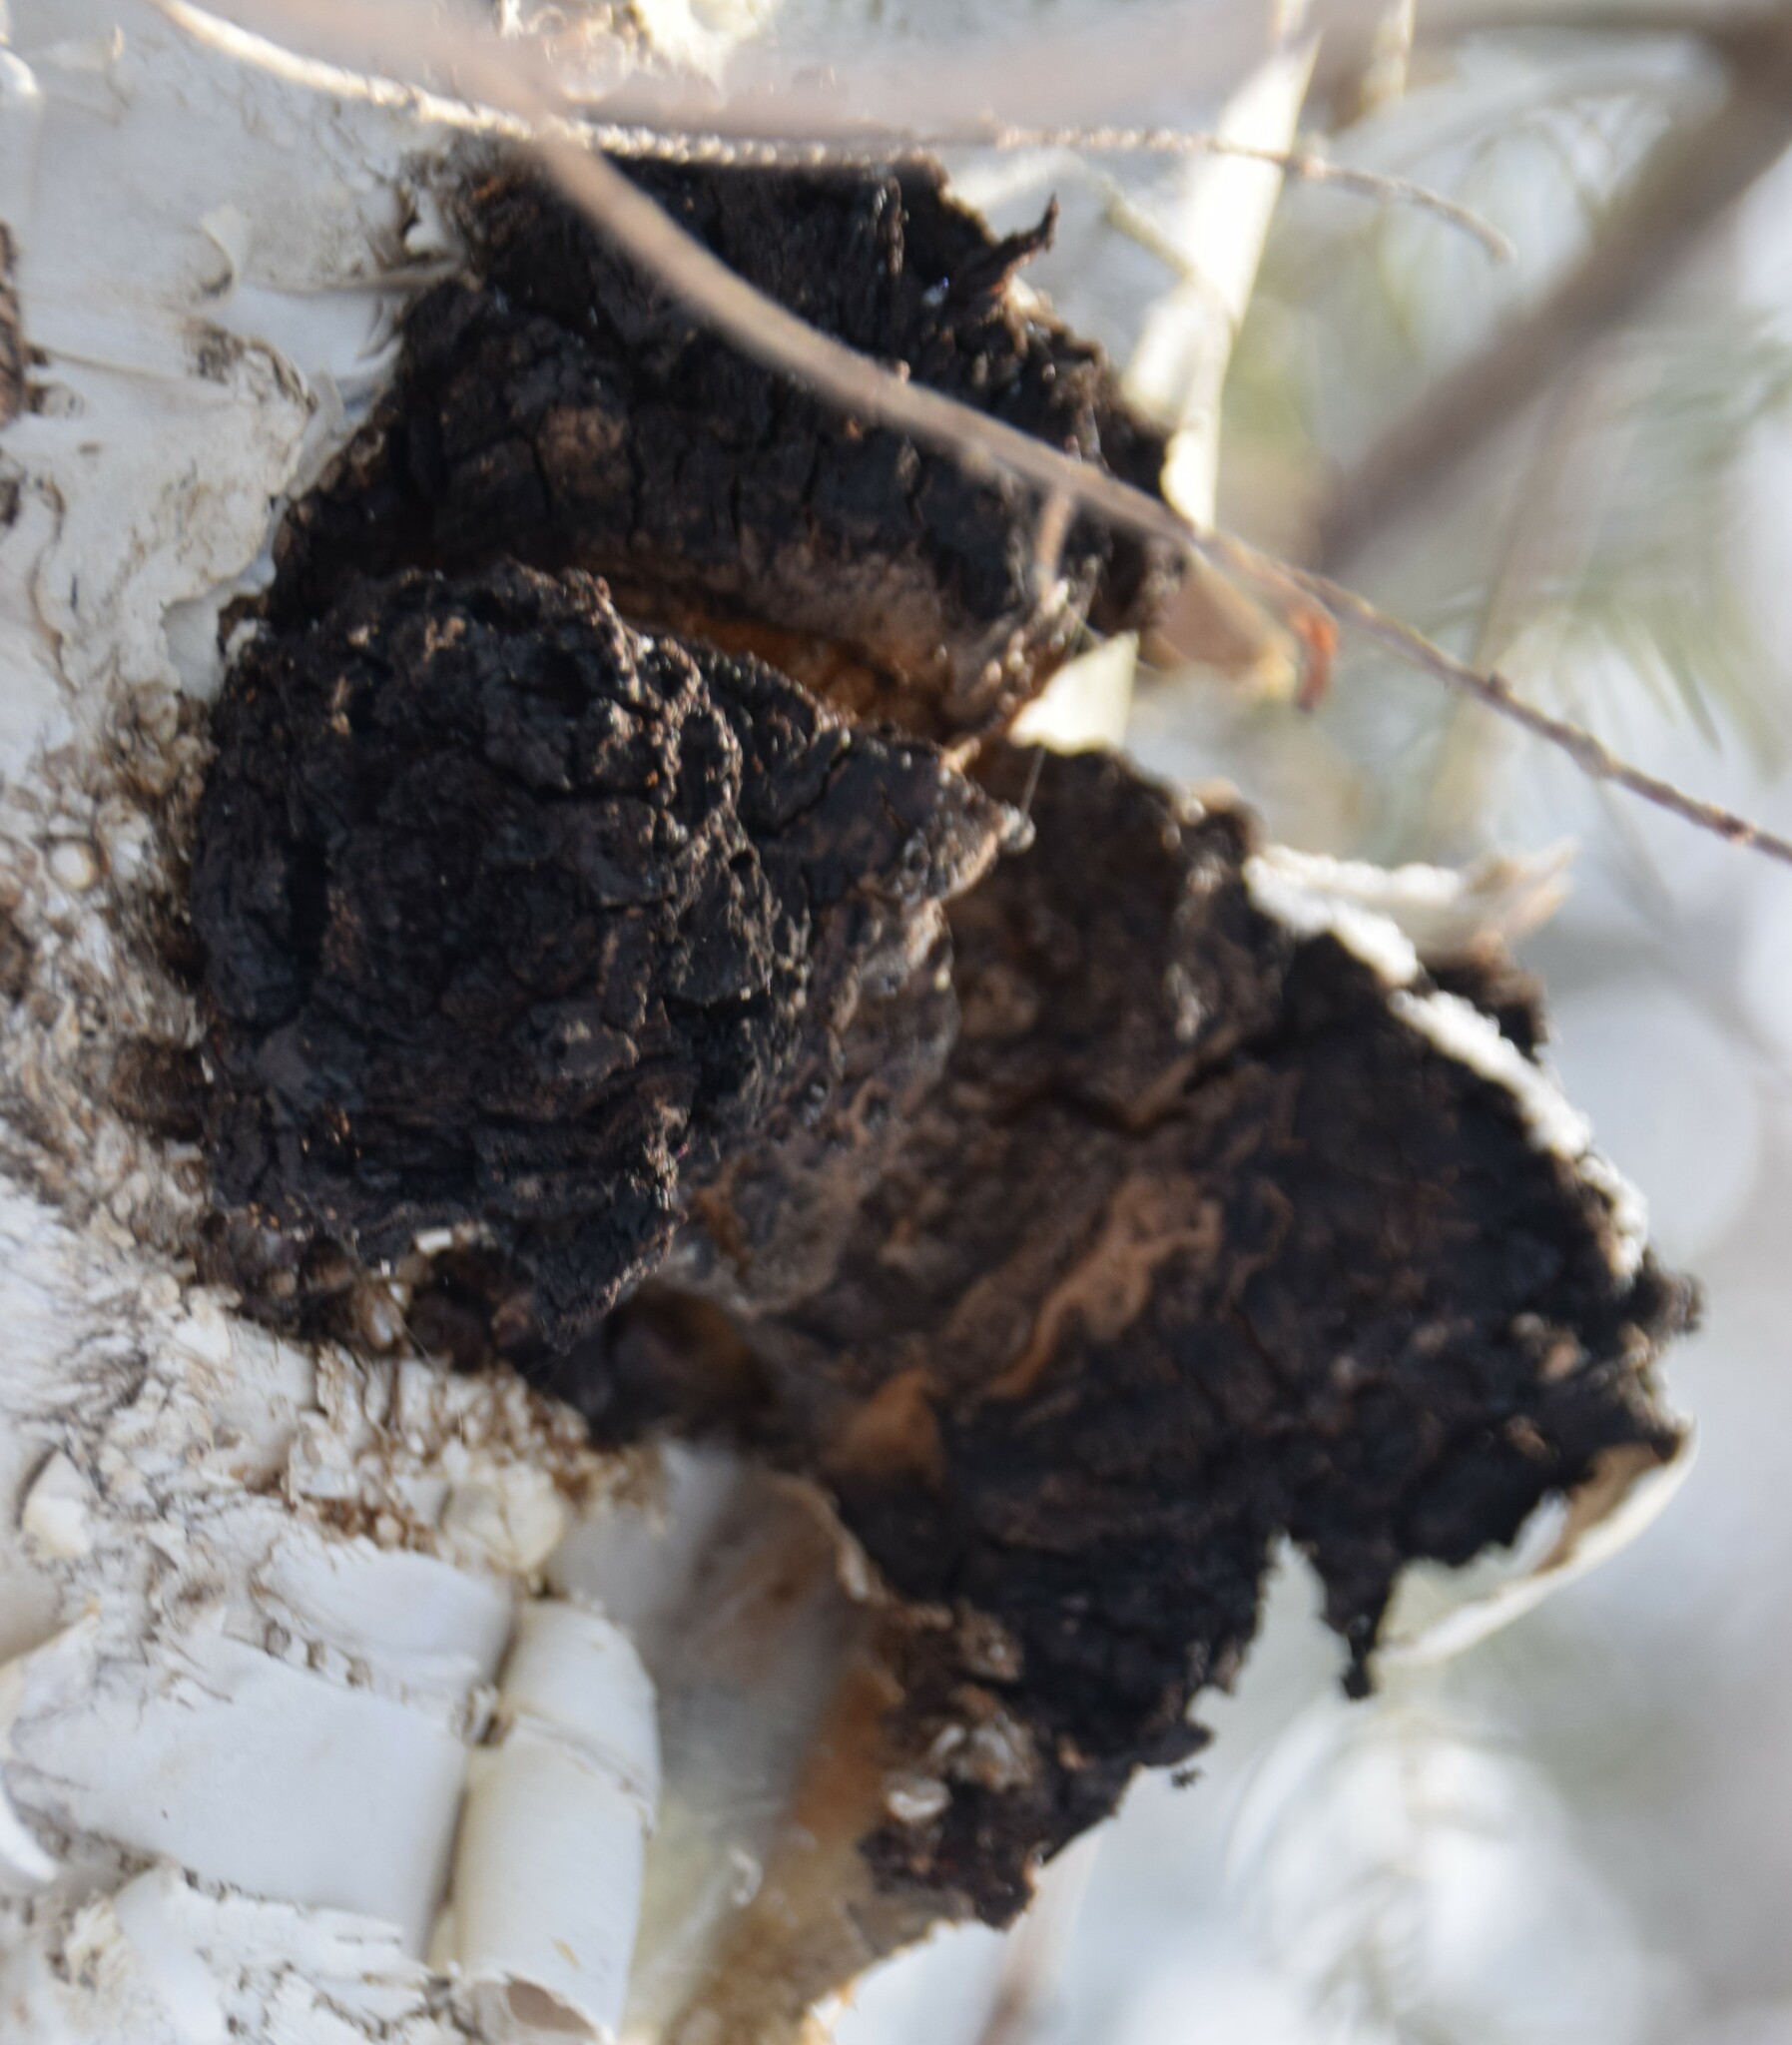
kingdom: Fungi
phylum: Basidiomycota
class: Agaricomycetes
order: Hymenochaetales
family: Hymenochaetaceae
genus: Inonotus
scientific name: Inonotus obliquus
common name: Chaga
